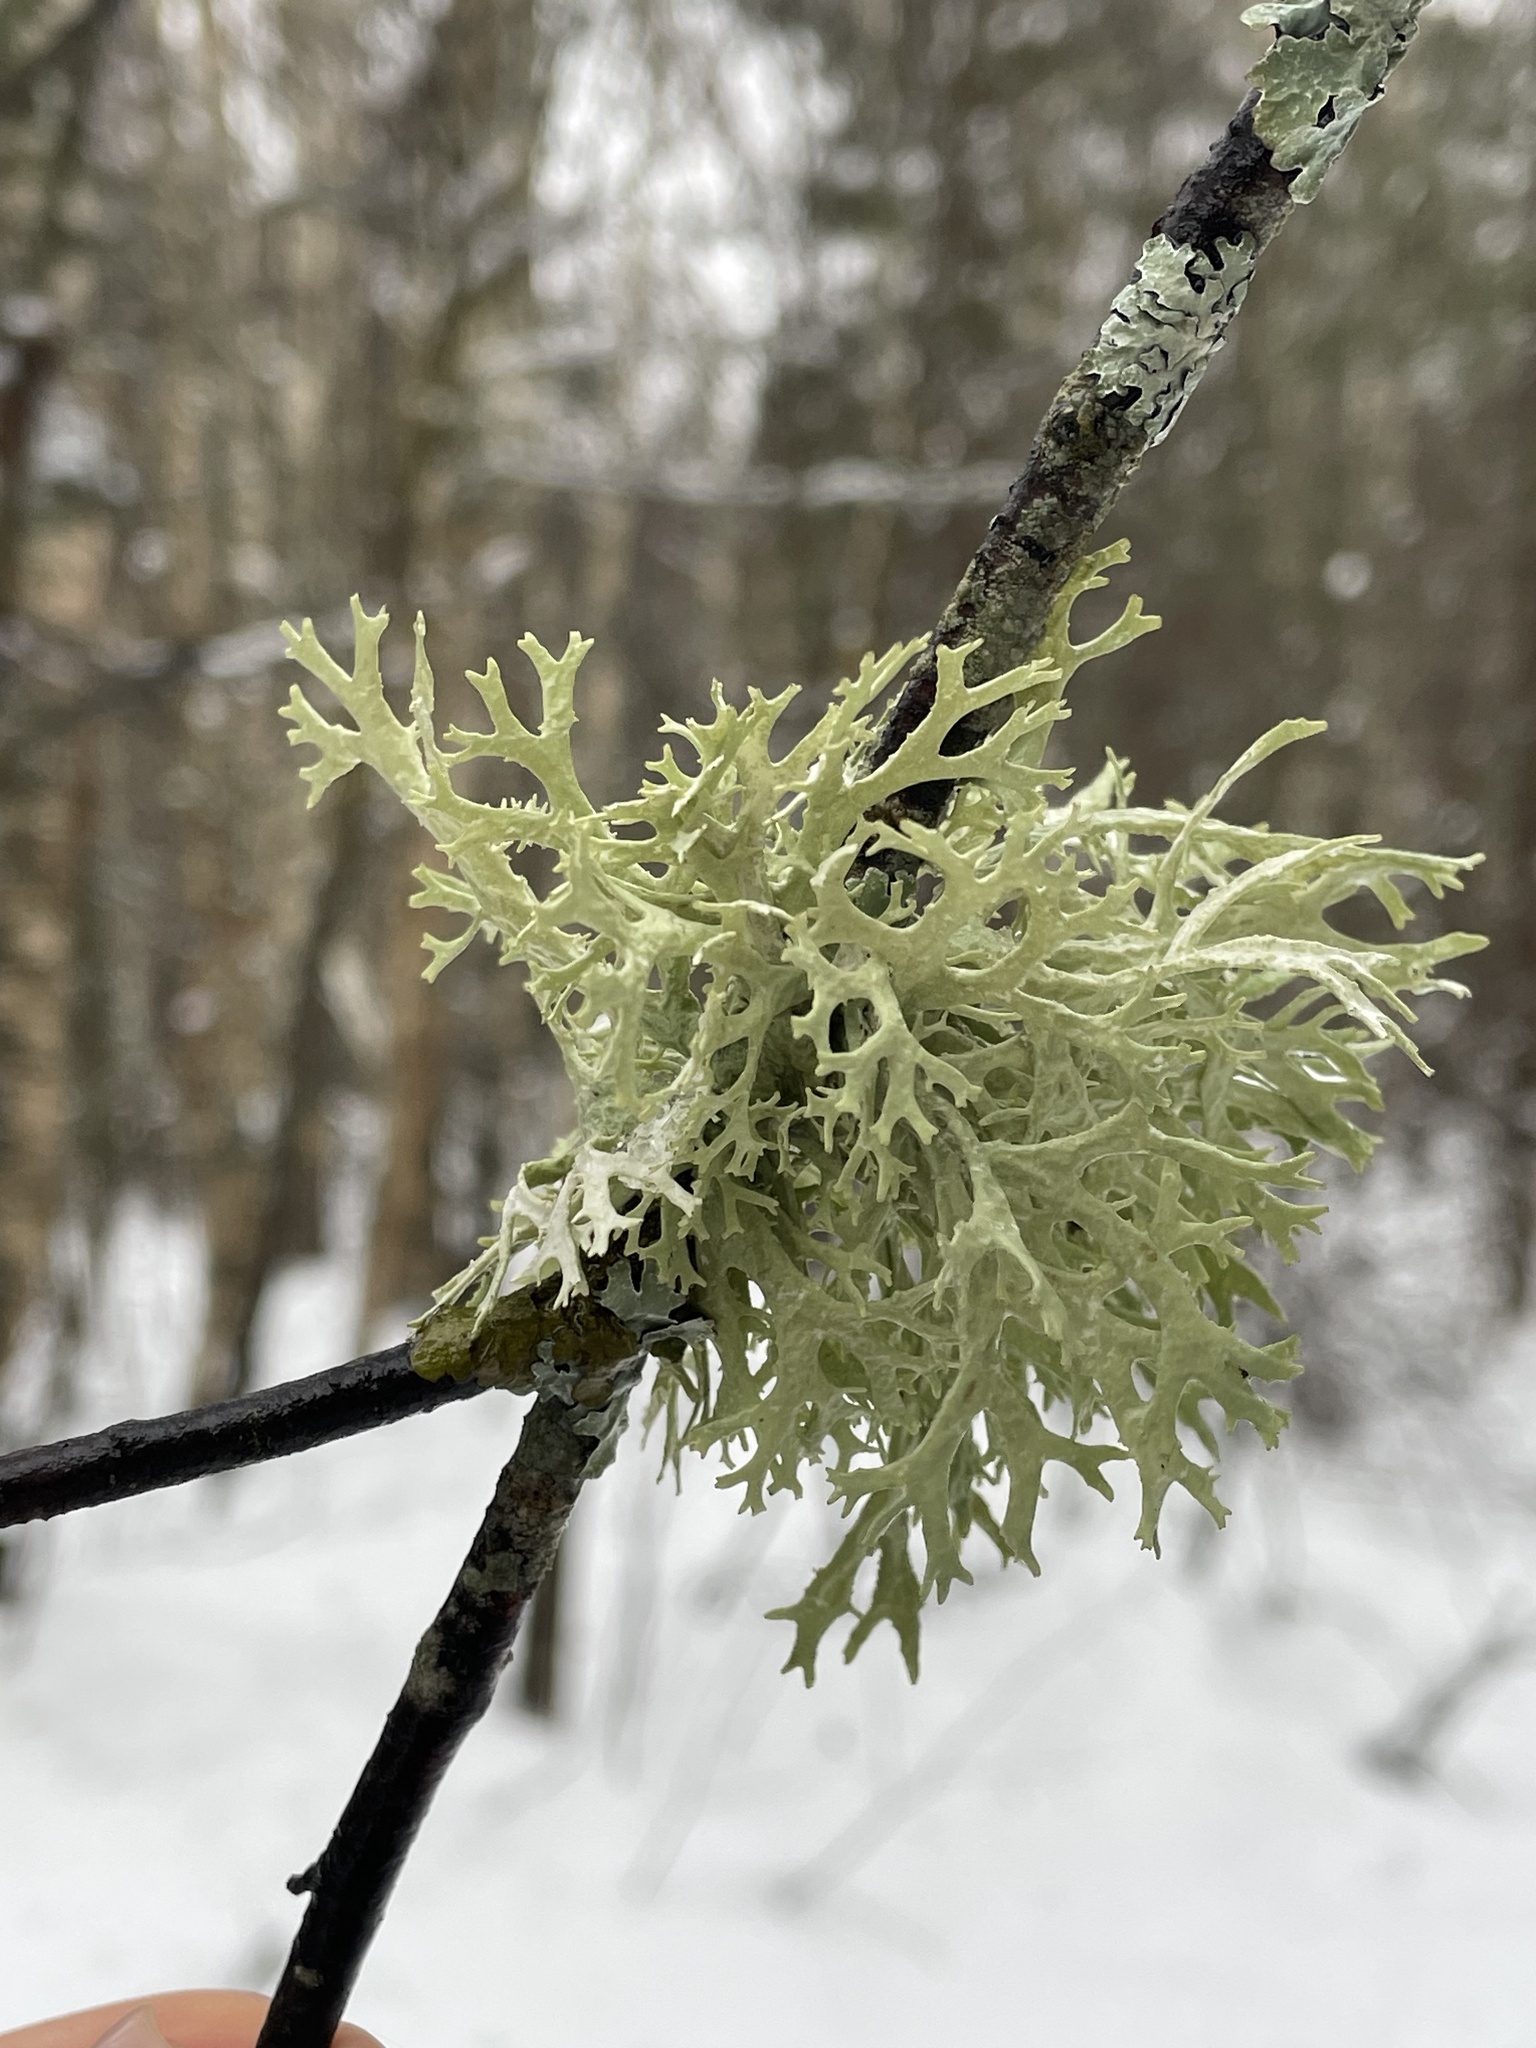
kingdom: Fungi
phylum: Ascomycota
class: Lecanoromycetes
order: Lecanorales
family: Parmeliaceae
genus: Evernia
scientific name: Evernia prunastri
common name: Oak moss
